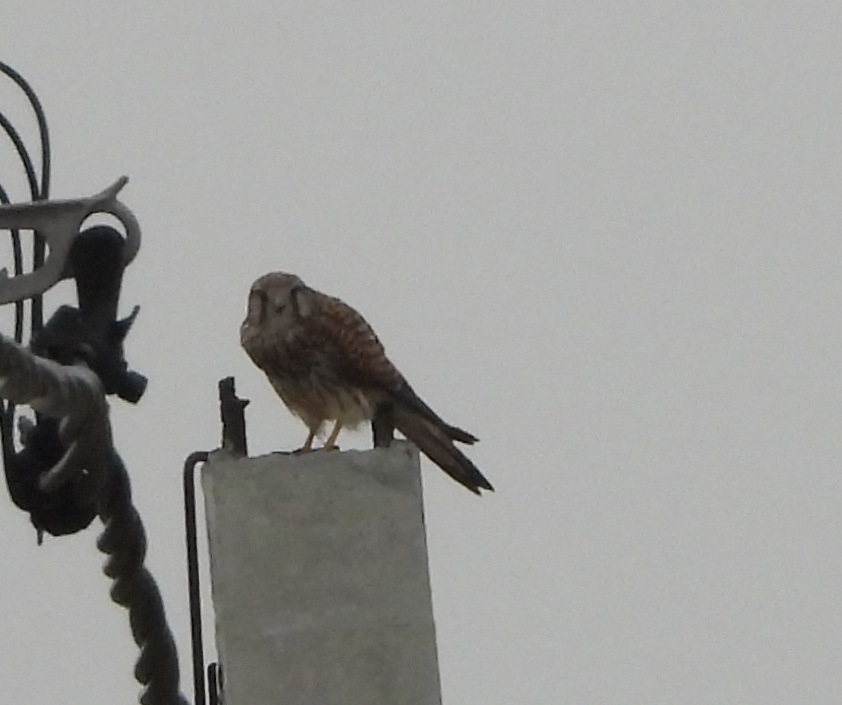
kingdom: Animalia
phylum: Chordata
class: Aves
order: Falconiformes
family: Falconidae
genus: Falco
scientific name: Falco tinnunculus
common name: Common kestrel
